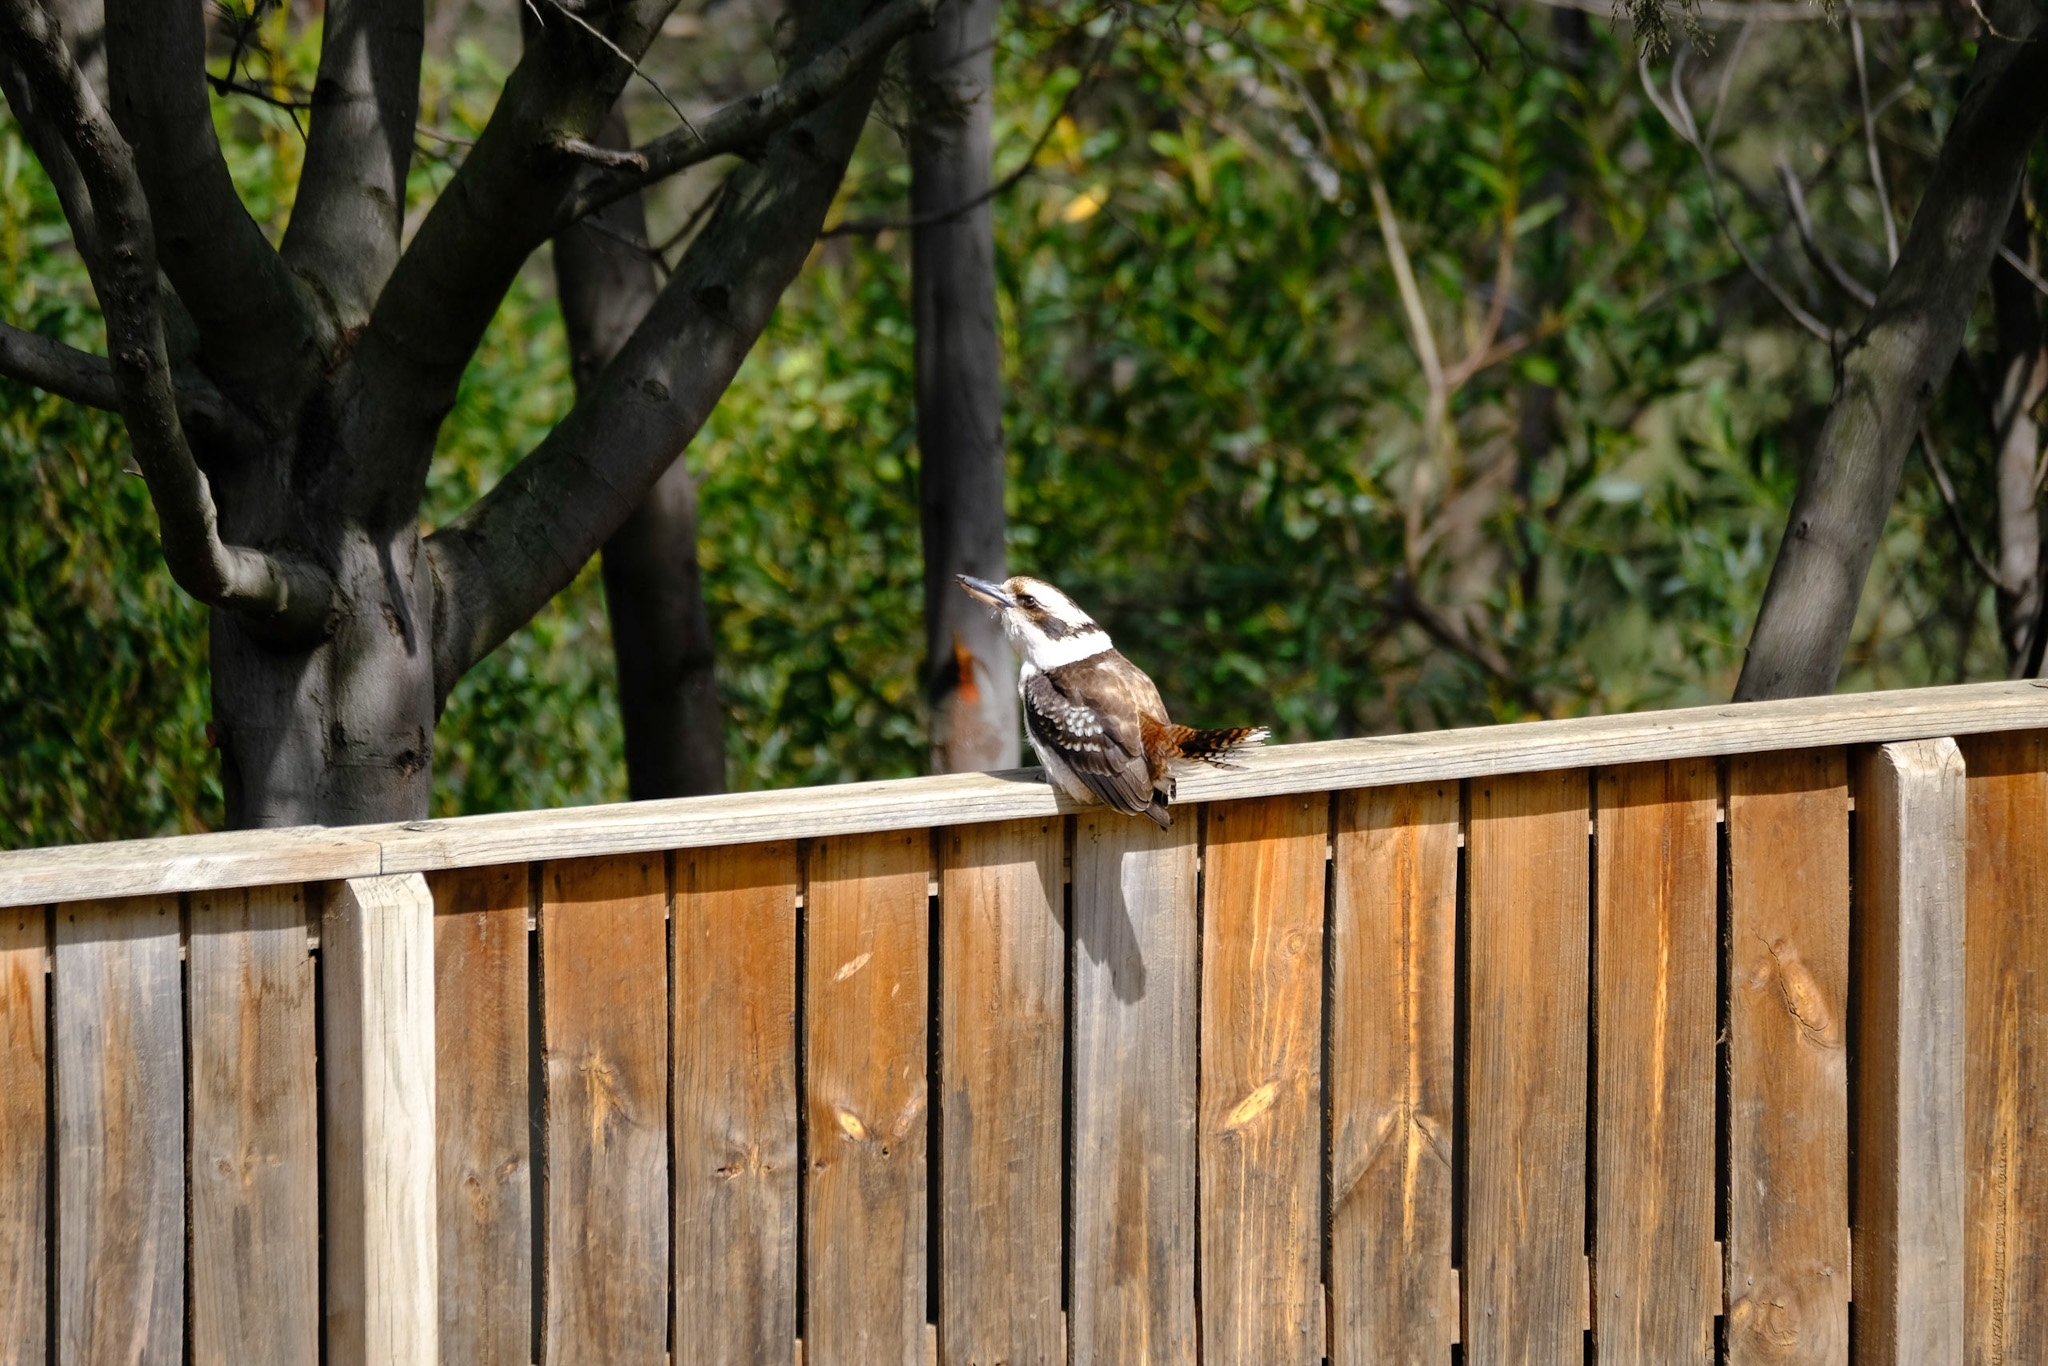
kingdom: Animalia
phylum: Chordata
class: Aves
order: Coraciiformes
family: Alcedinidae
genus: Dacelo
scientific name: Dacelo novaeguineae
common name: Laughing kookaburra
